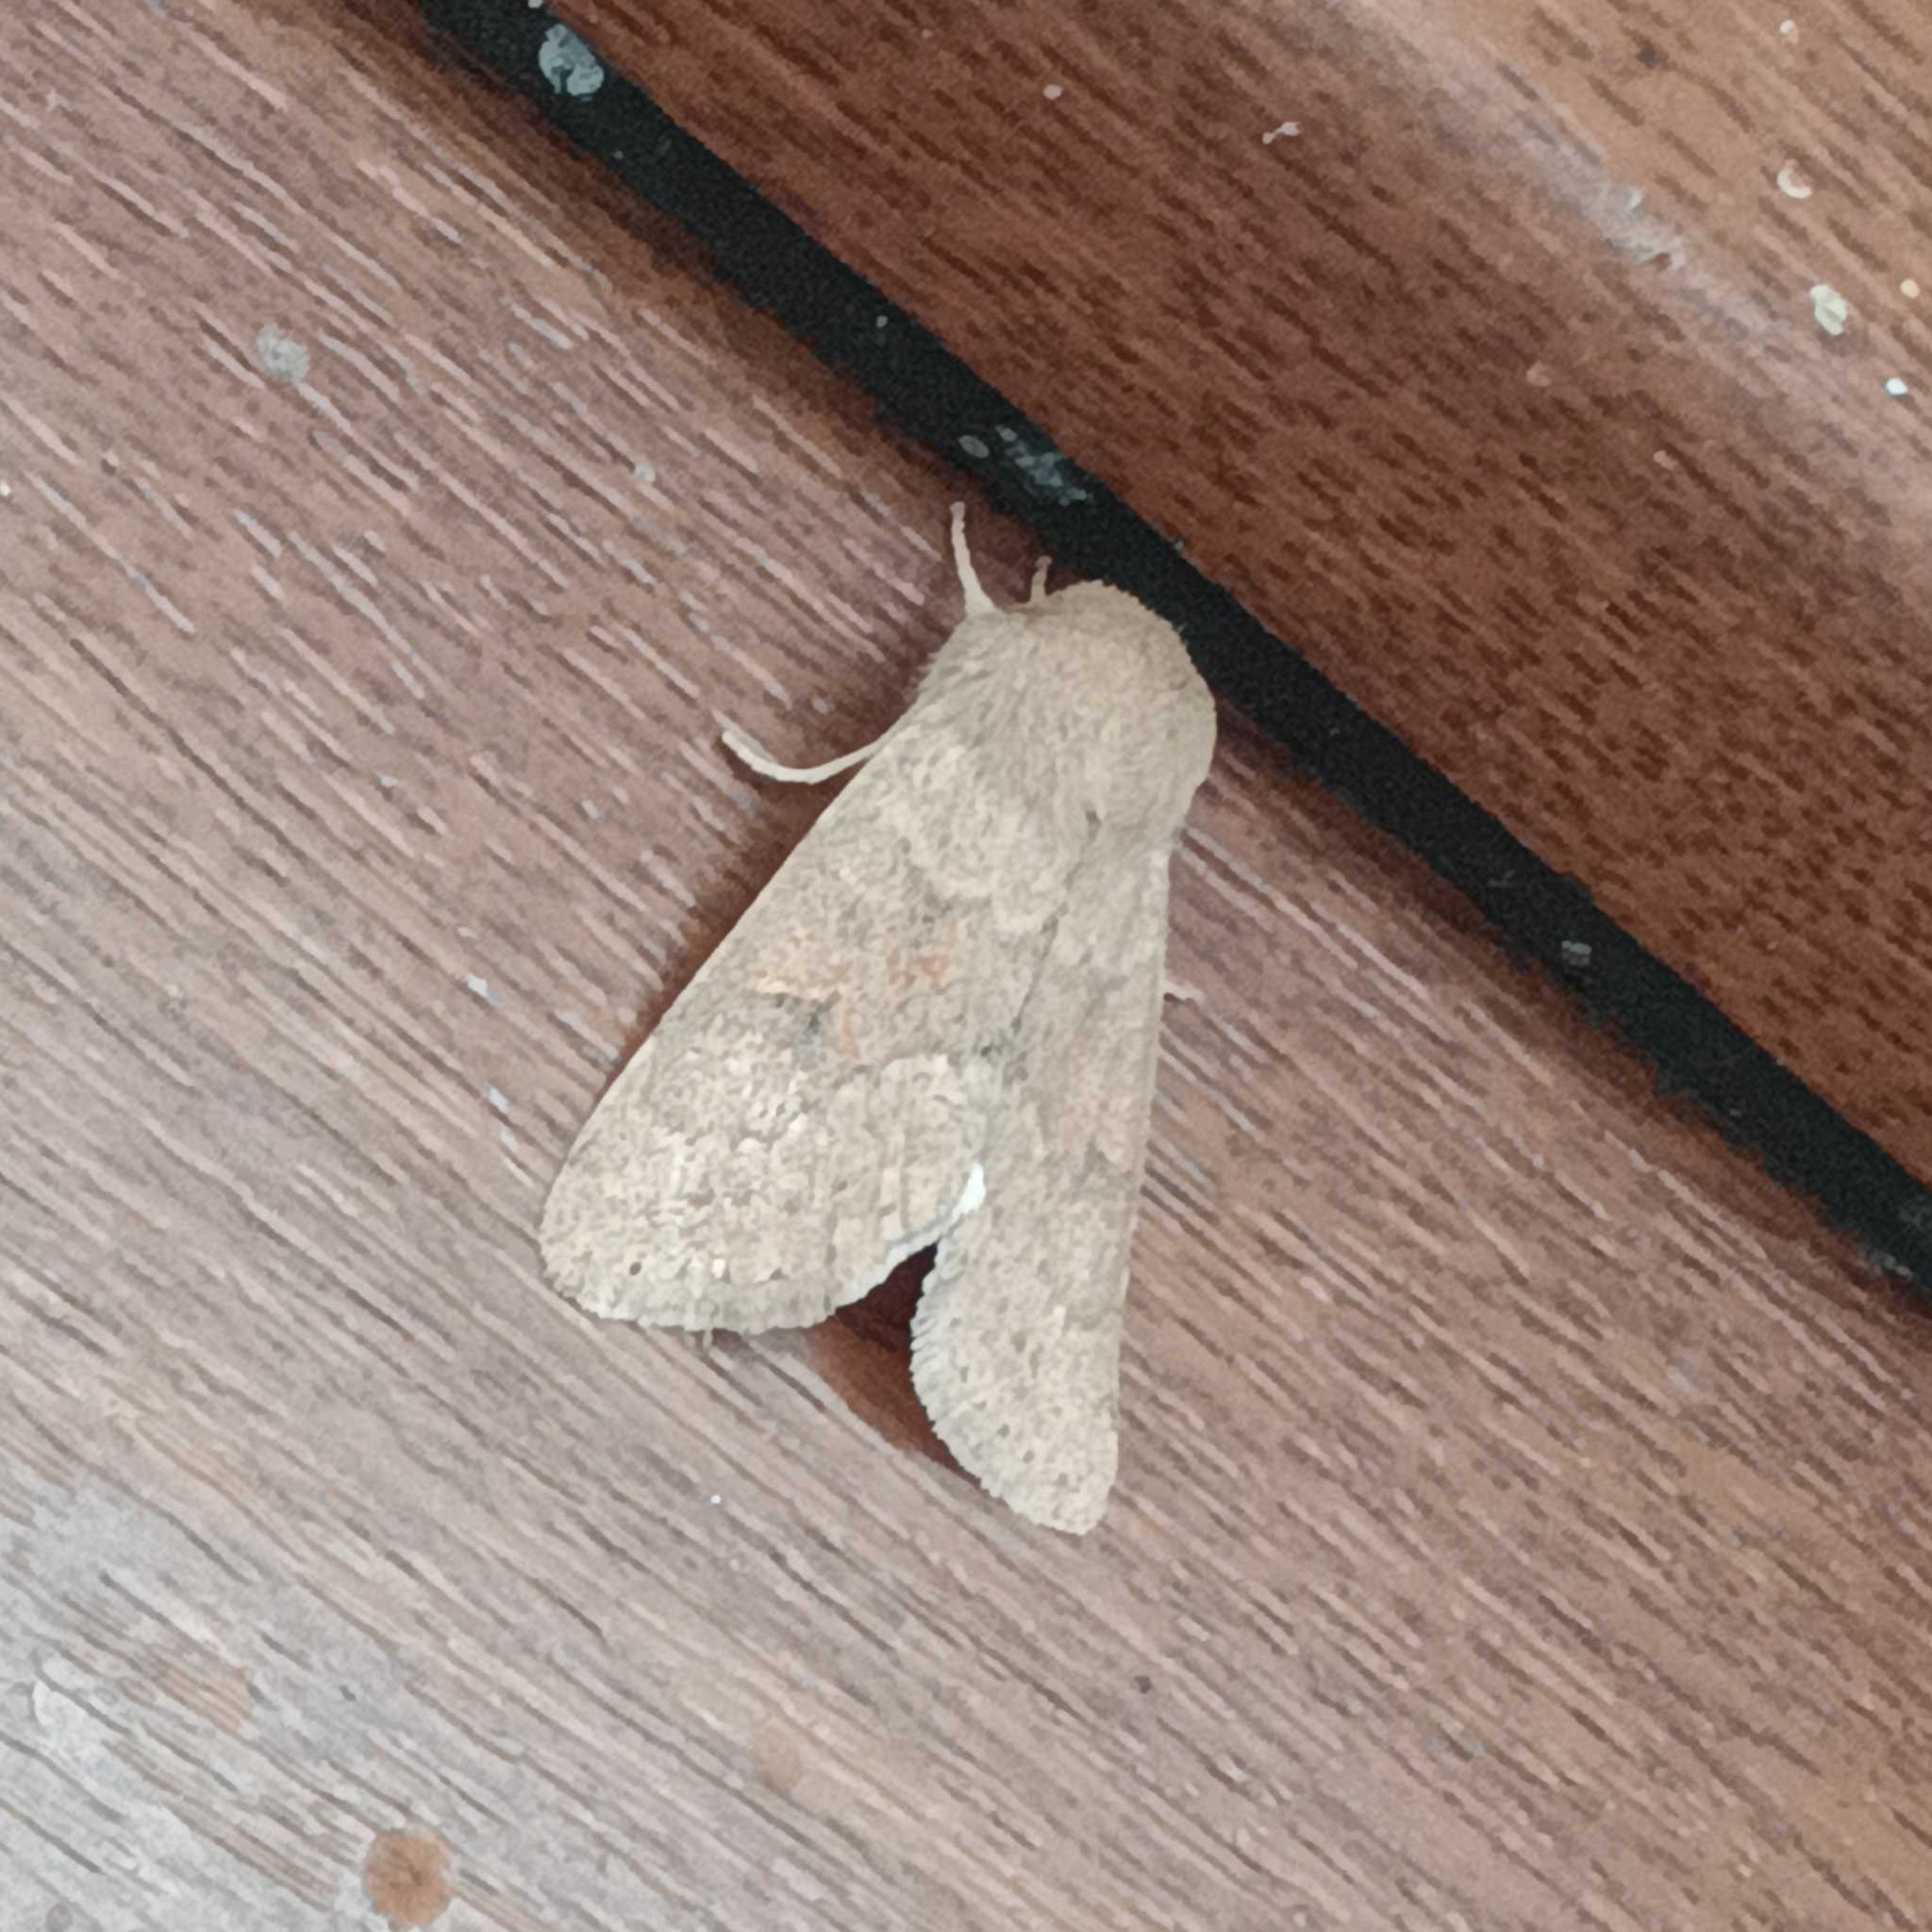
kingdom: Animalia
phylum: Arthropoda
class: Insecta
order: Lepidoptera
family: Noctuidae
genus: Orthosia
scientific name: Orthosia miniosa
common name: Blossom underwing
